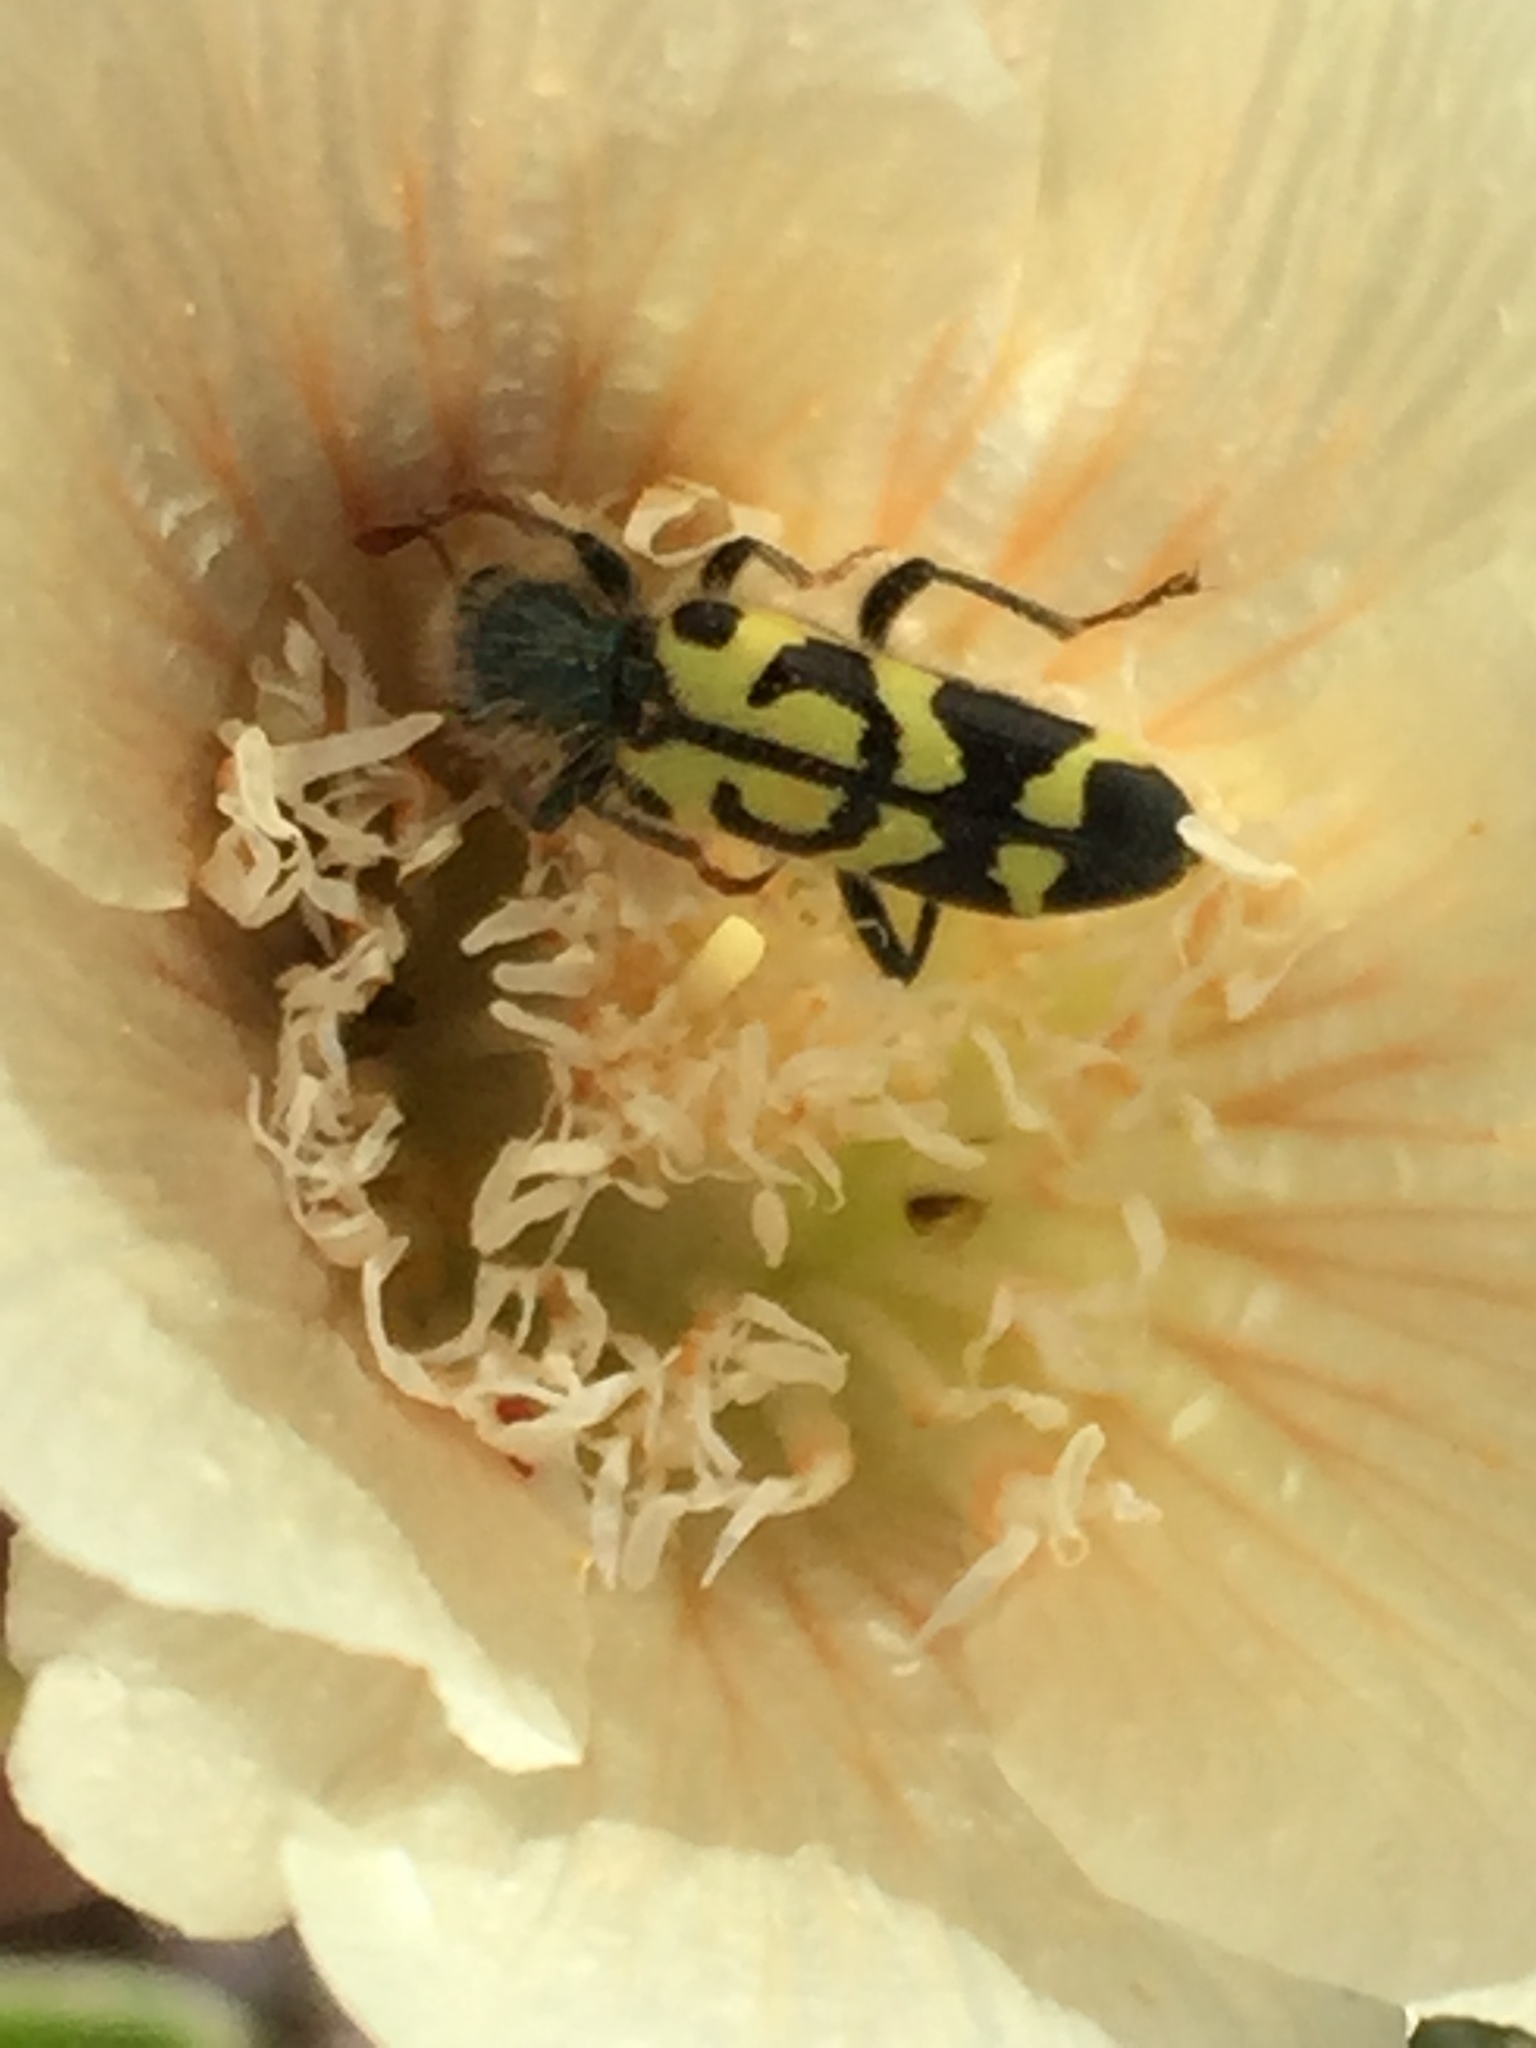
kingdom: Animalia
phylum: Arthropoda
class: Insecta
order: Coleoptera
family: Cleridae
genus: Trichodes
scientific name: Trichodes ornatus
